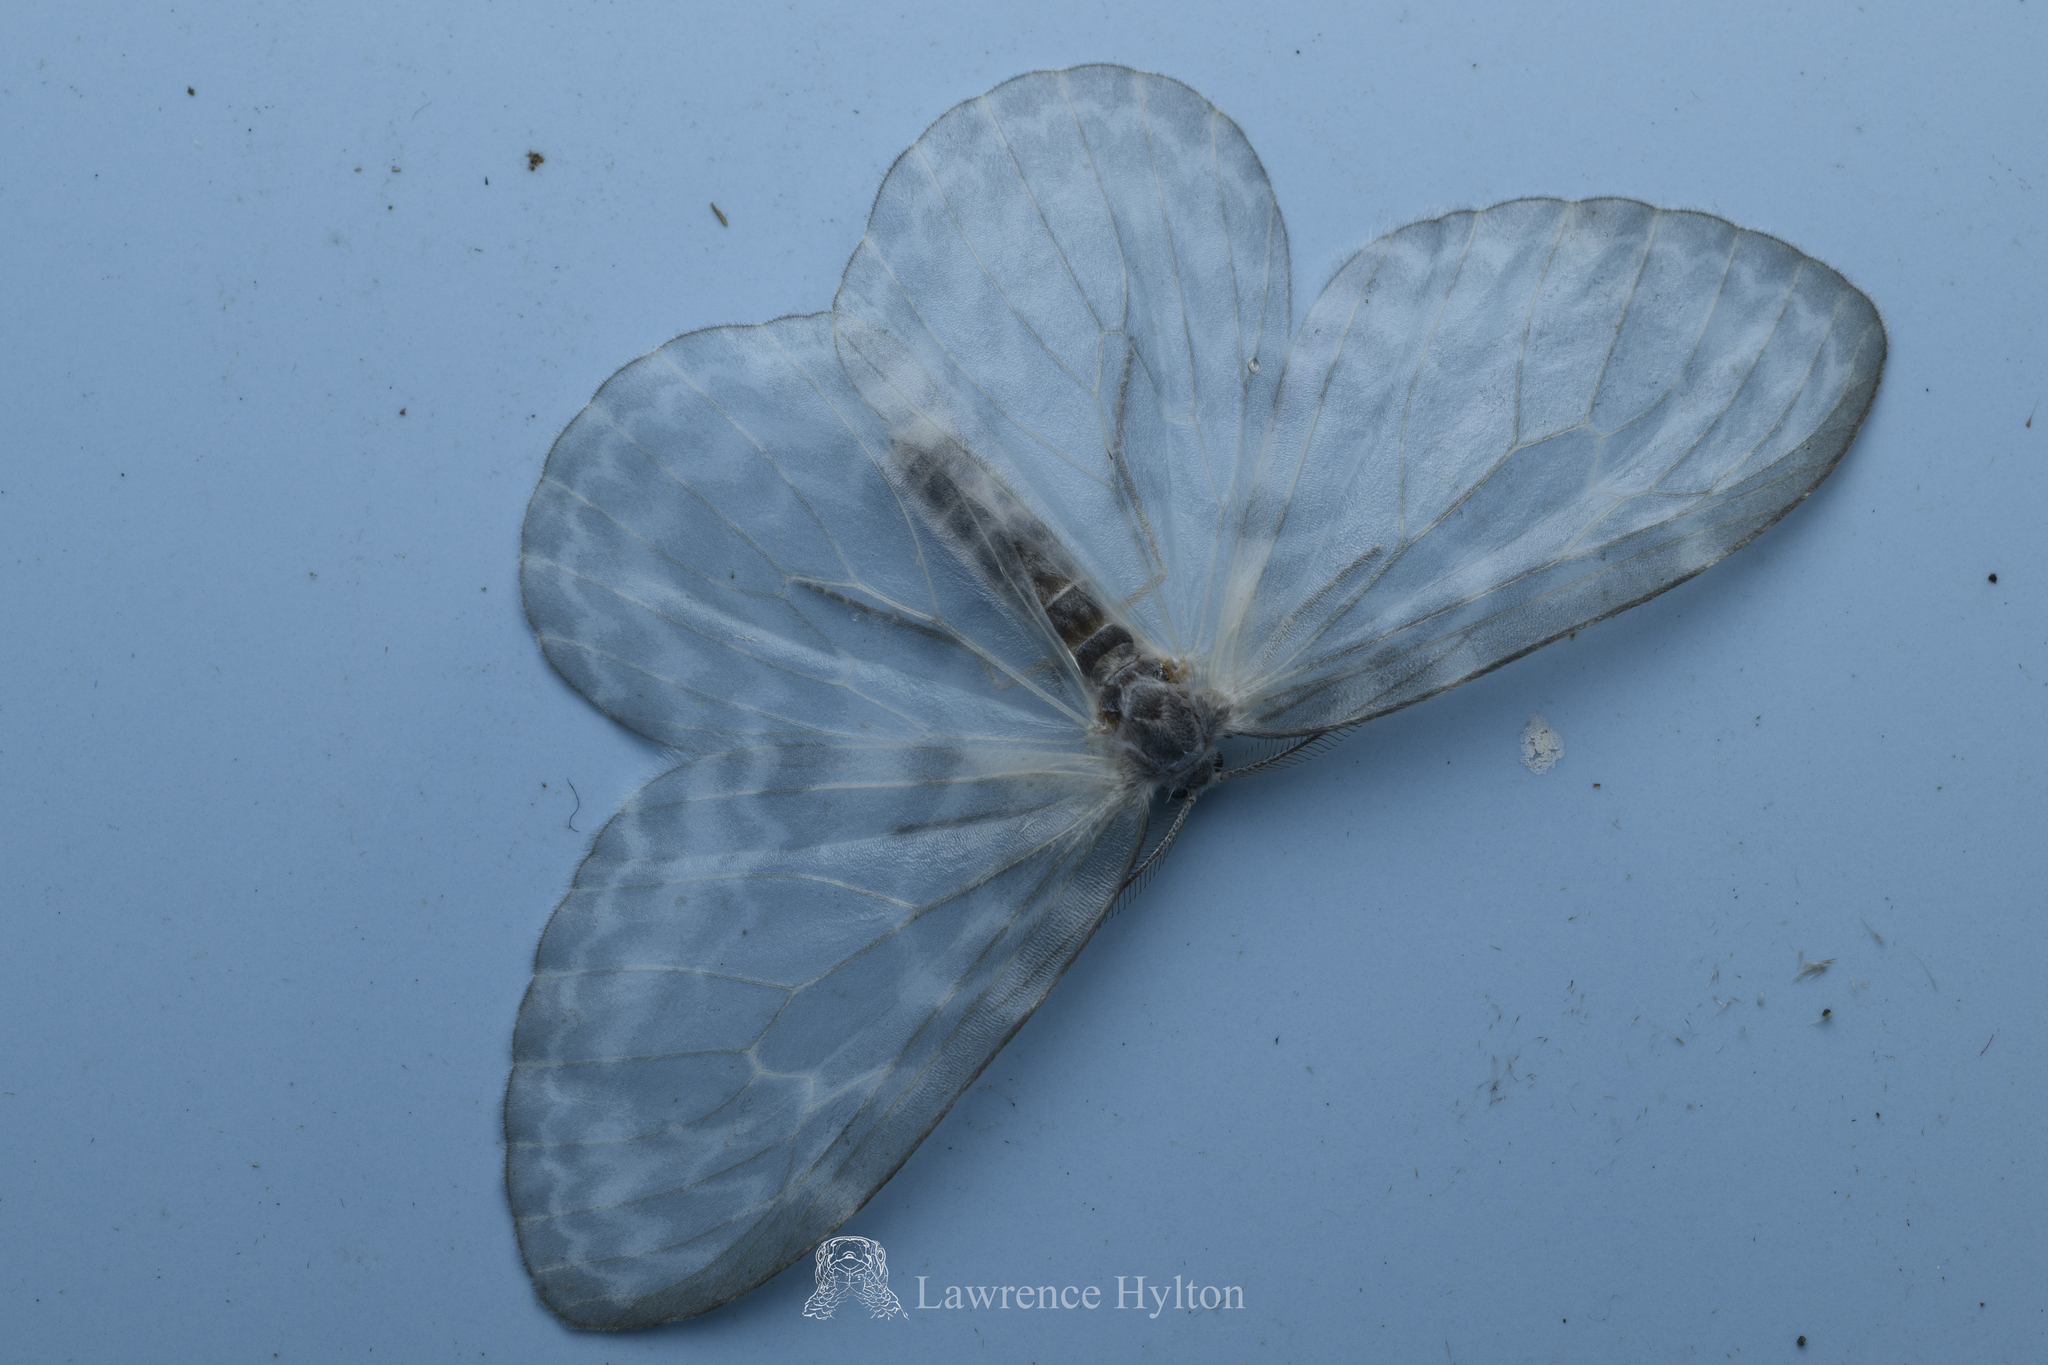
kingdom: Animalia
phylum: Arthropoda
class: Insecta
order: Lepidoptera
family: Drepanidae
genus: Deroca
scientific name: Deroca hyalina
